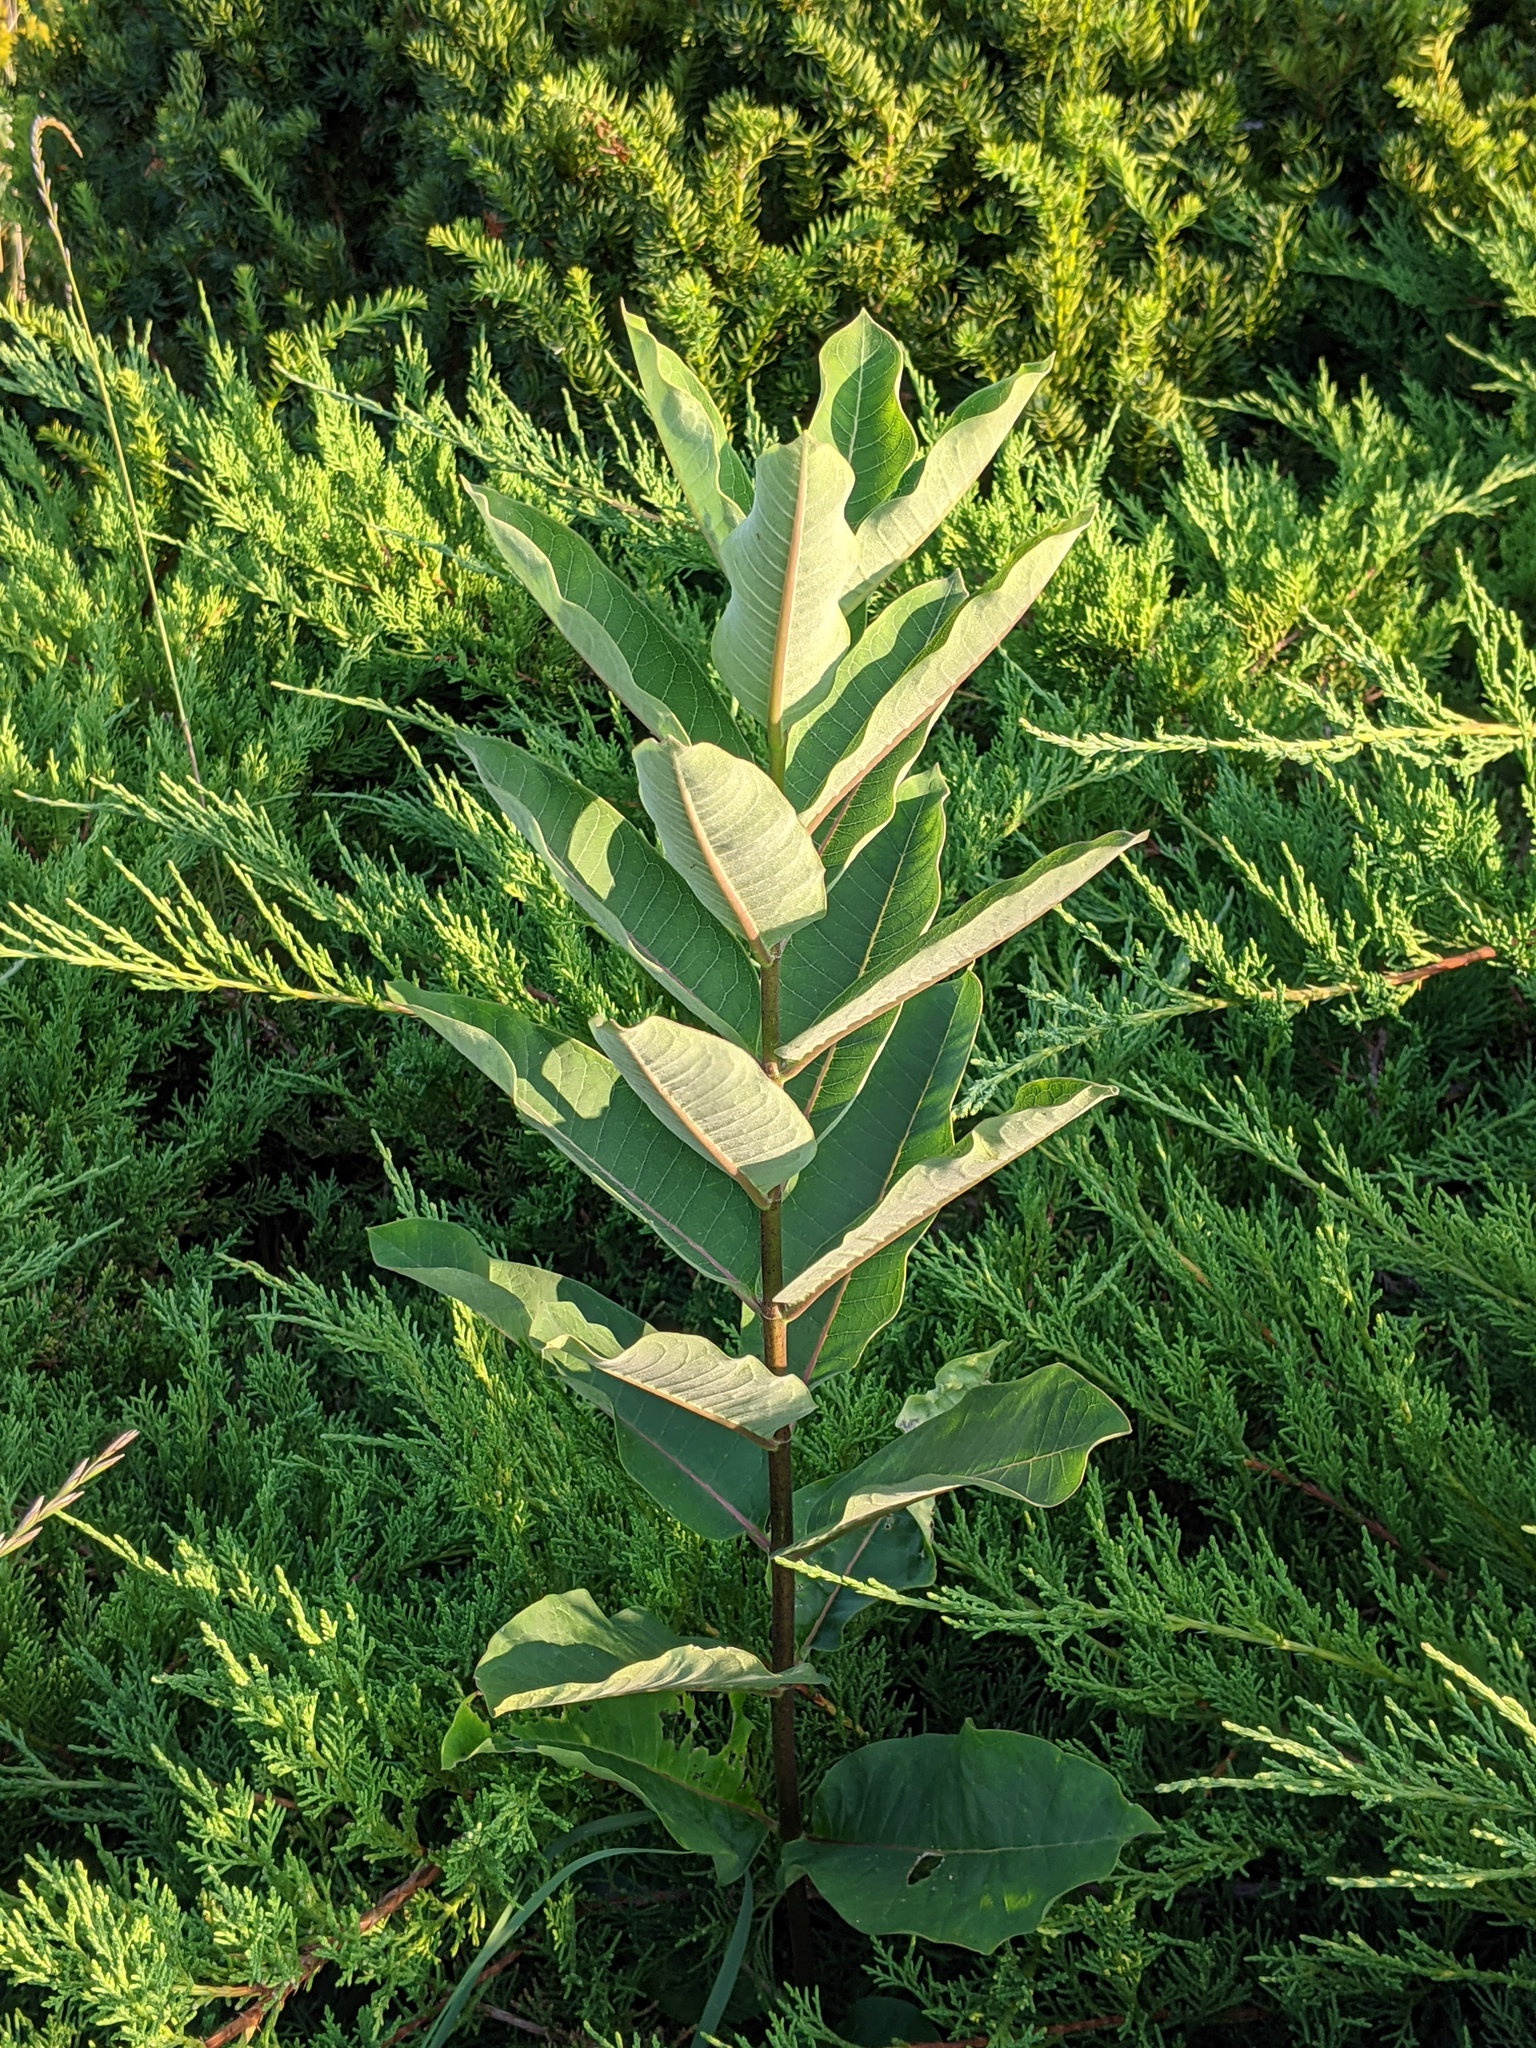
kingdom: Plantae
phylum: Tracheophyta
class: Magnoliopsida
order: Gentianales
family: Apocynaceae
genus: Asclepias
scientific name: Asclepias syriaca
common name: Common milkweed
